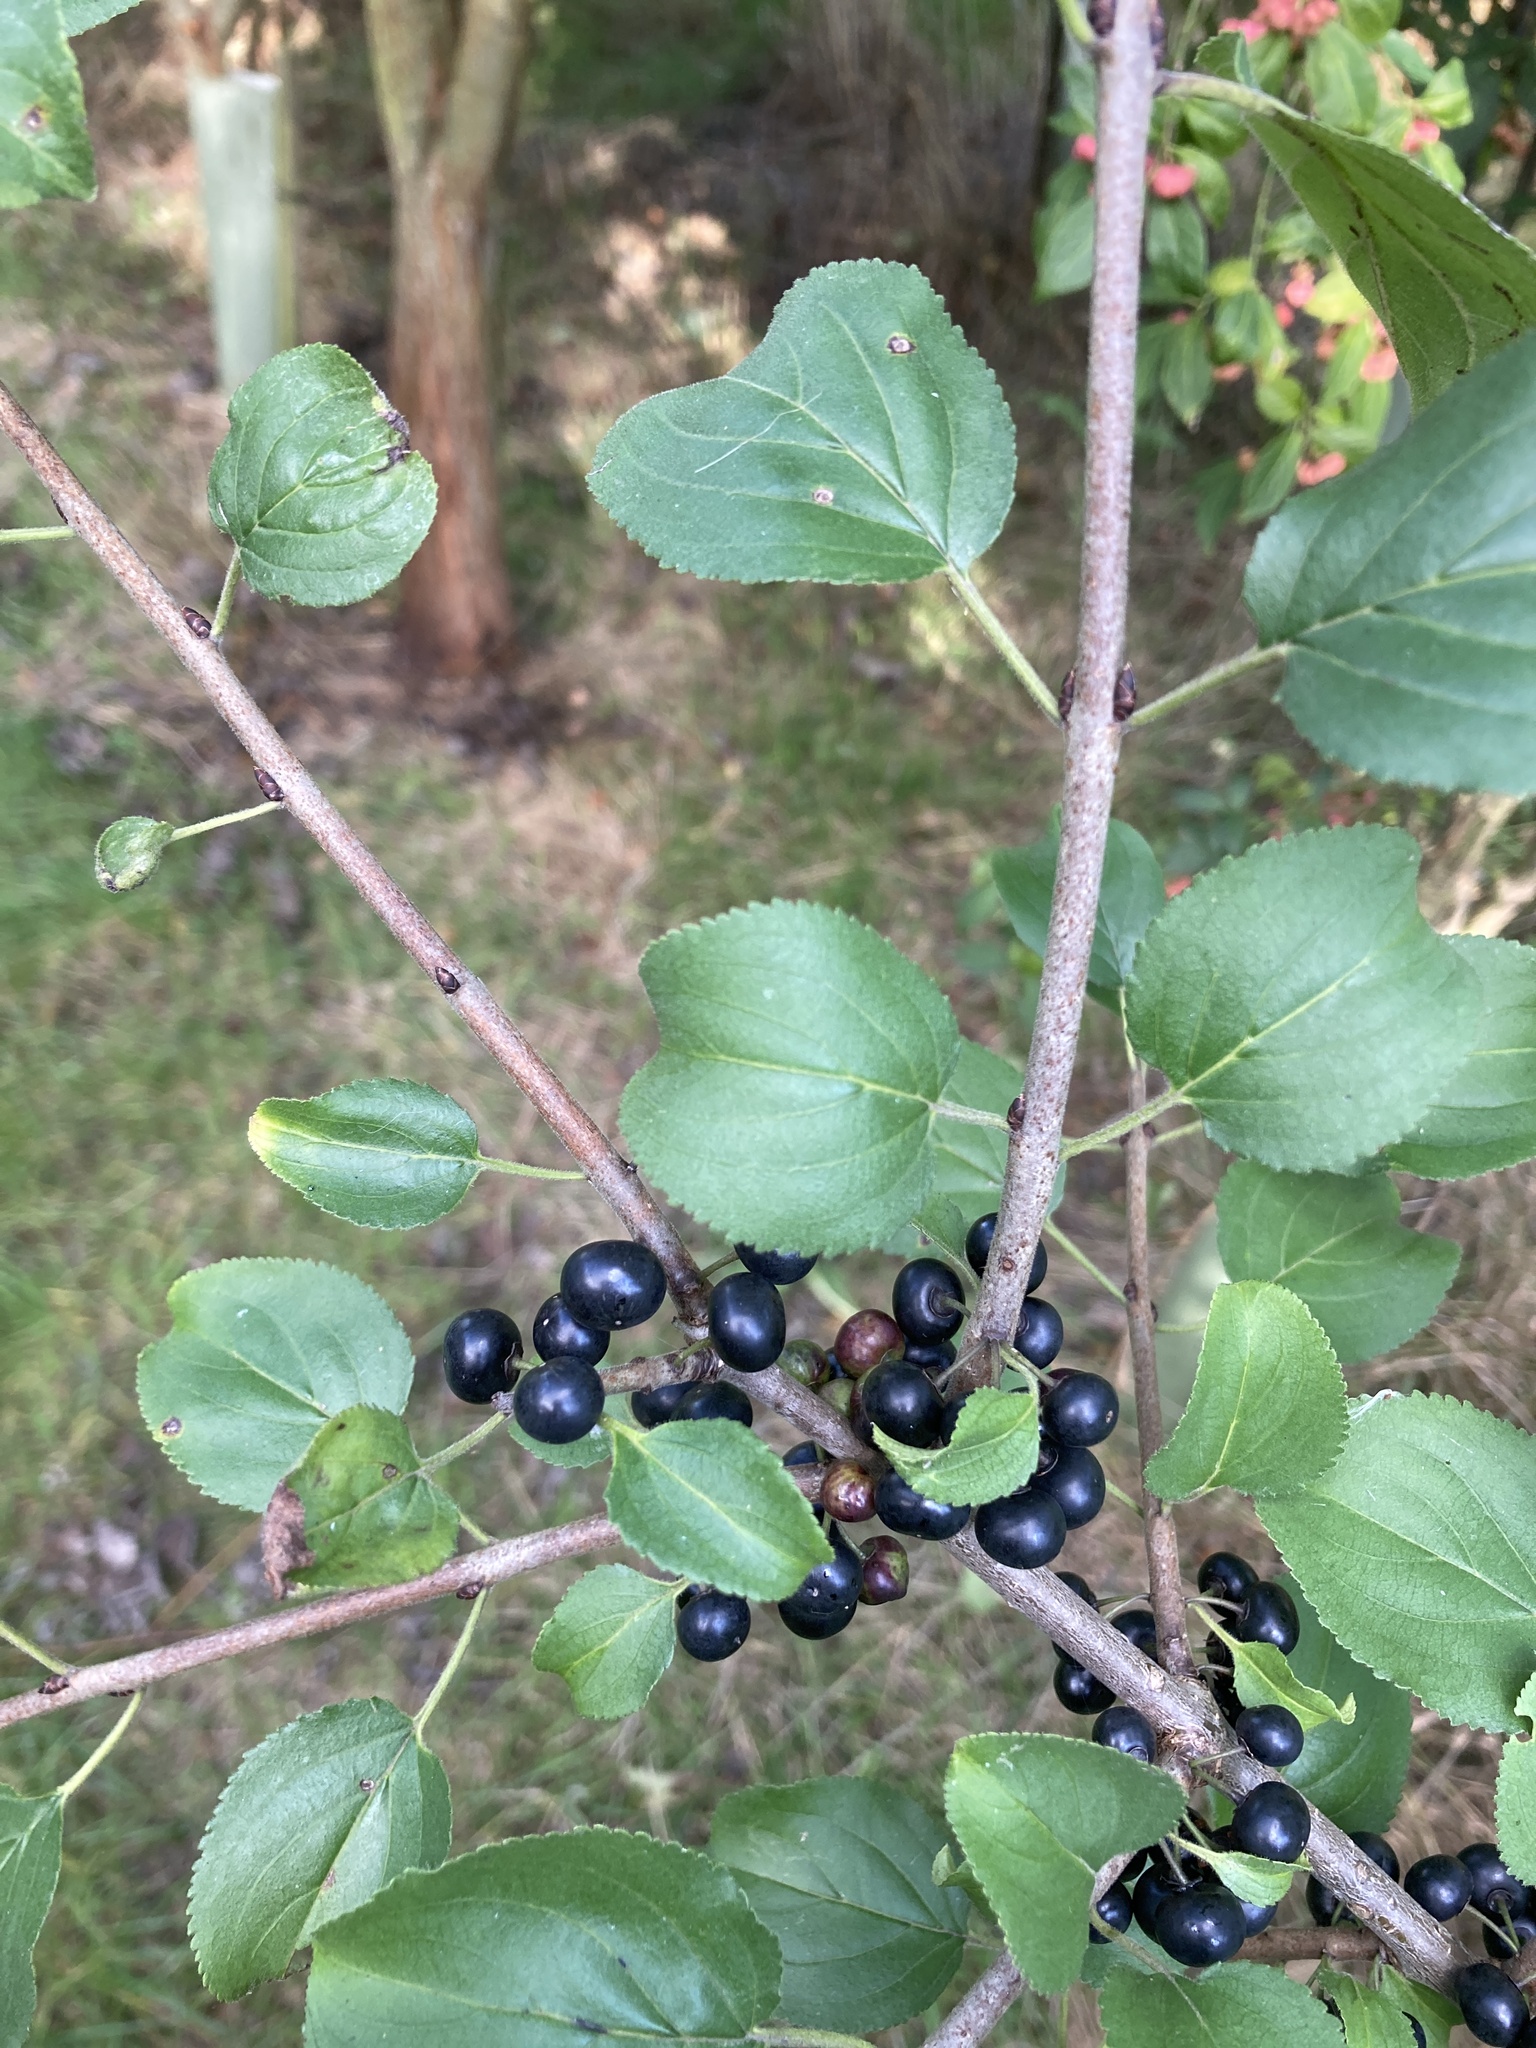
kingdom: Plantae
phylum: Tracheophyta
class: Magnoliopsida
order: Rosales
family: Rhamnaceae
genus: Rhamnus
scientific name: Rhamnus cathartica
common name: Common buckthorn
